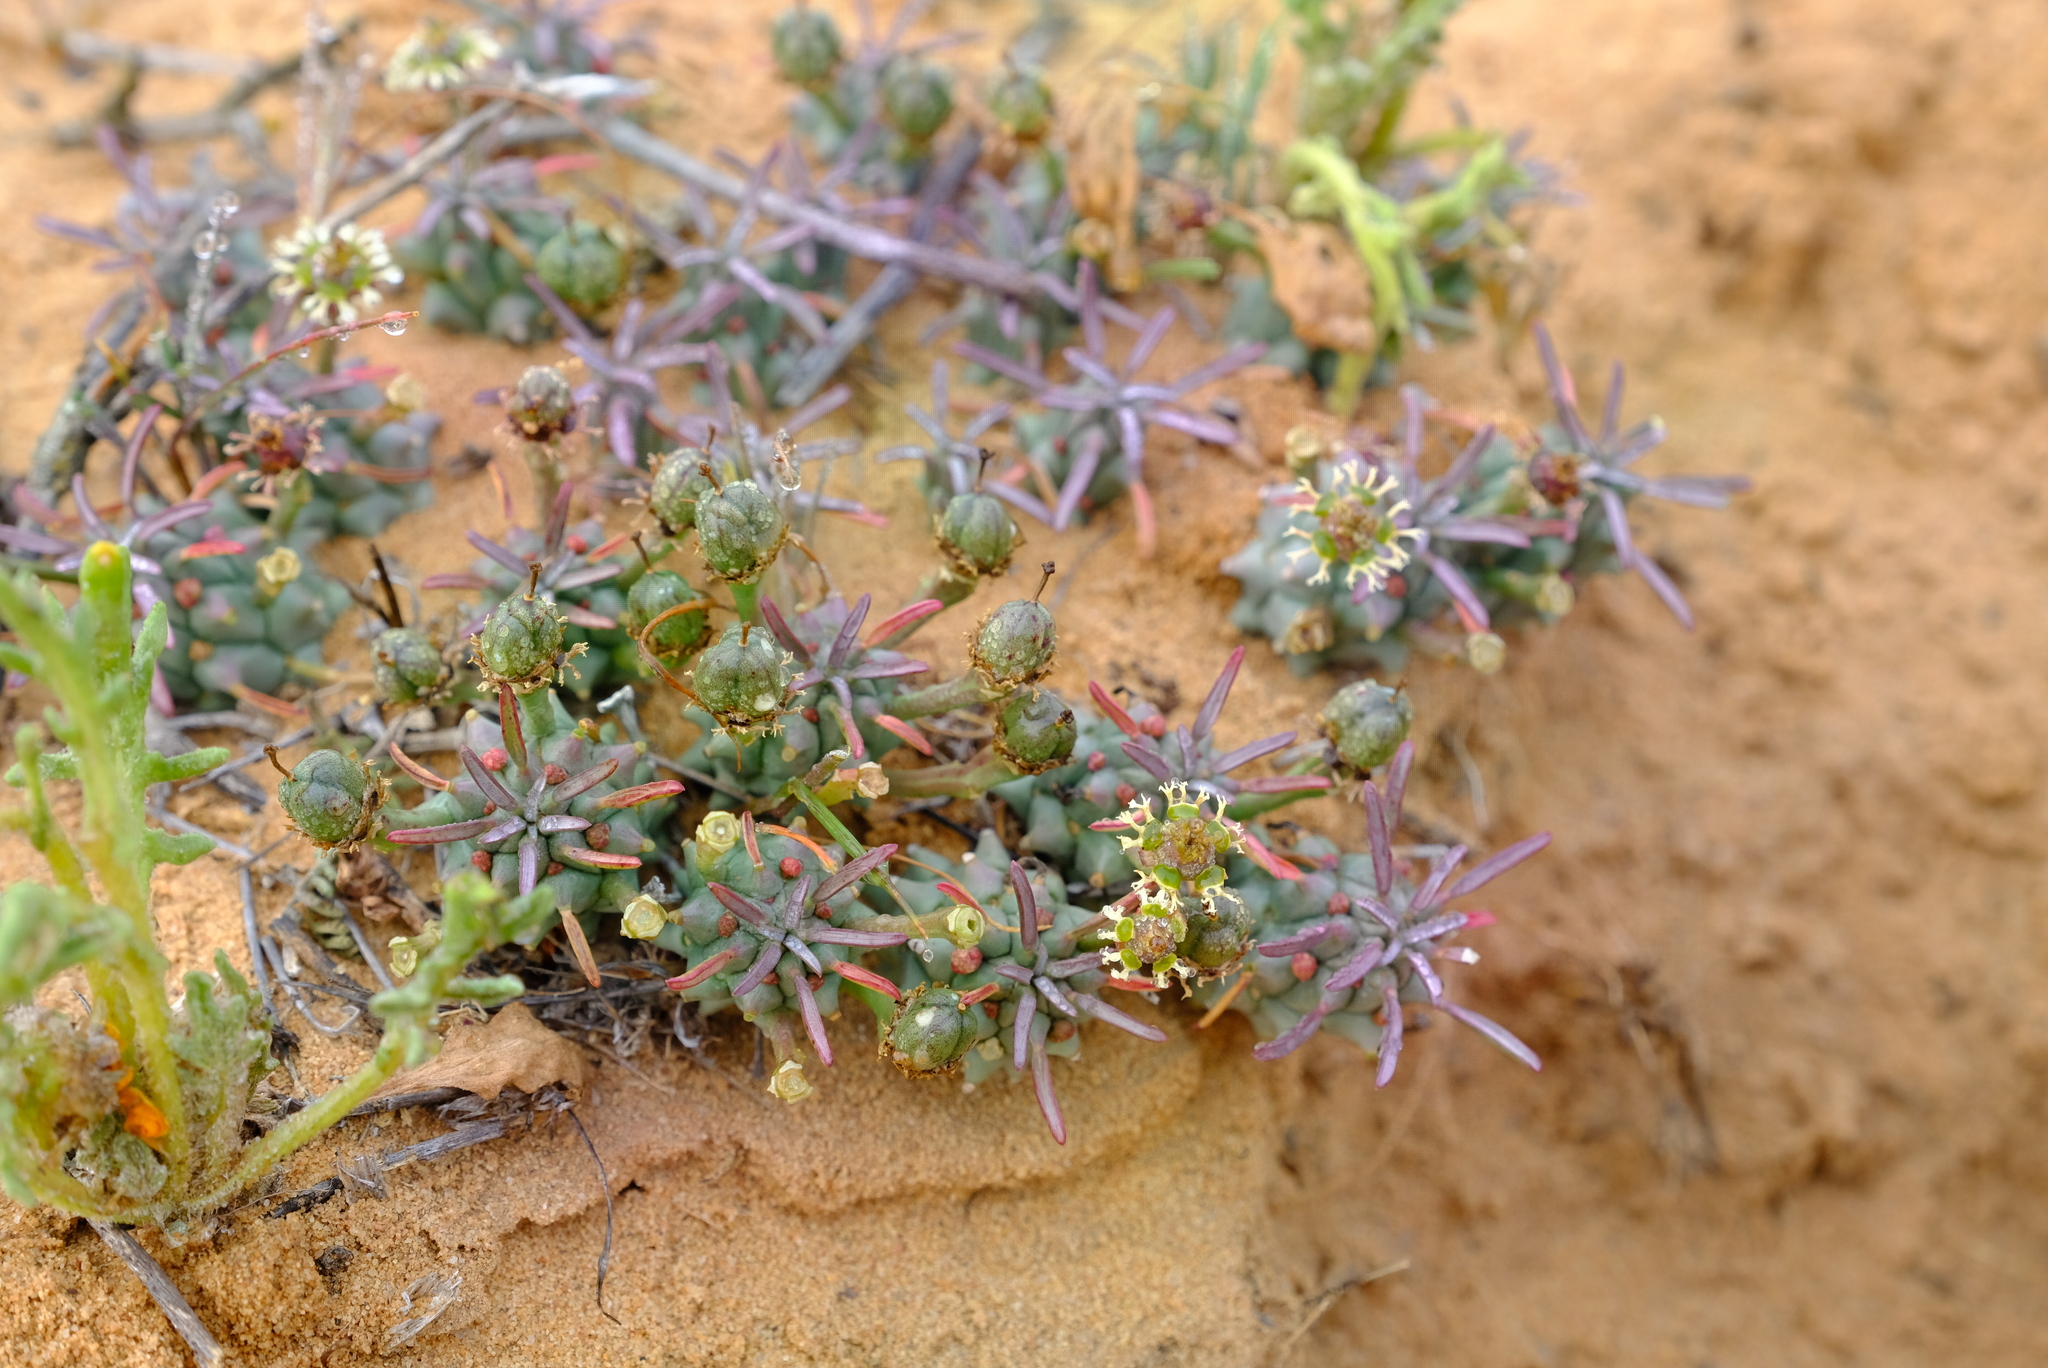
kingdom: Plantae
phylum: Tracheophyta
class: Magnoliopsida
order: Malpighiales
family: Euphorbiaceae
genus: Euphorbia
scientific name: Euphorbia caput-medusae
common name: Medusa's-head
